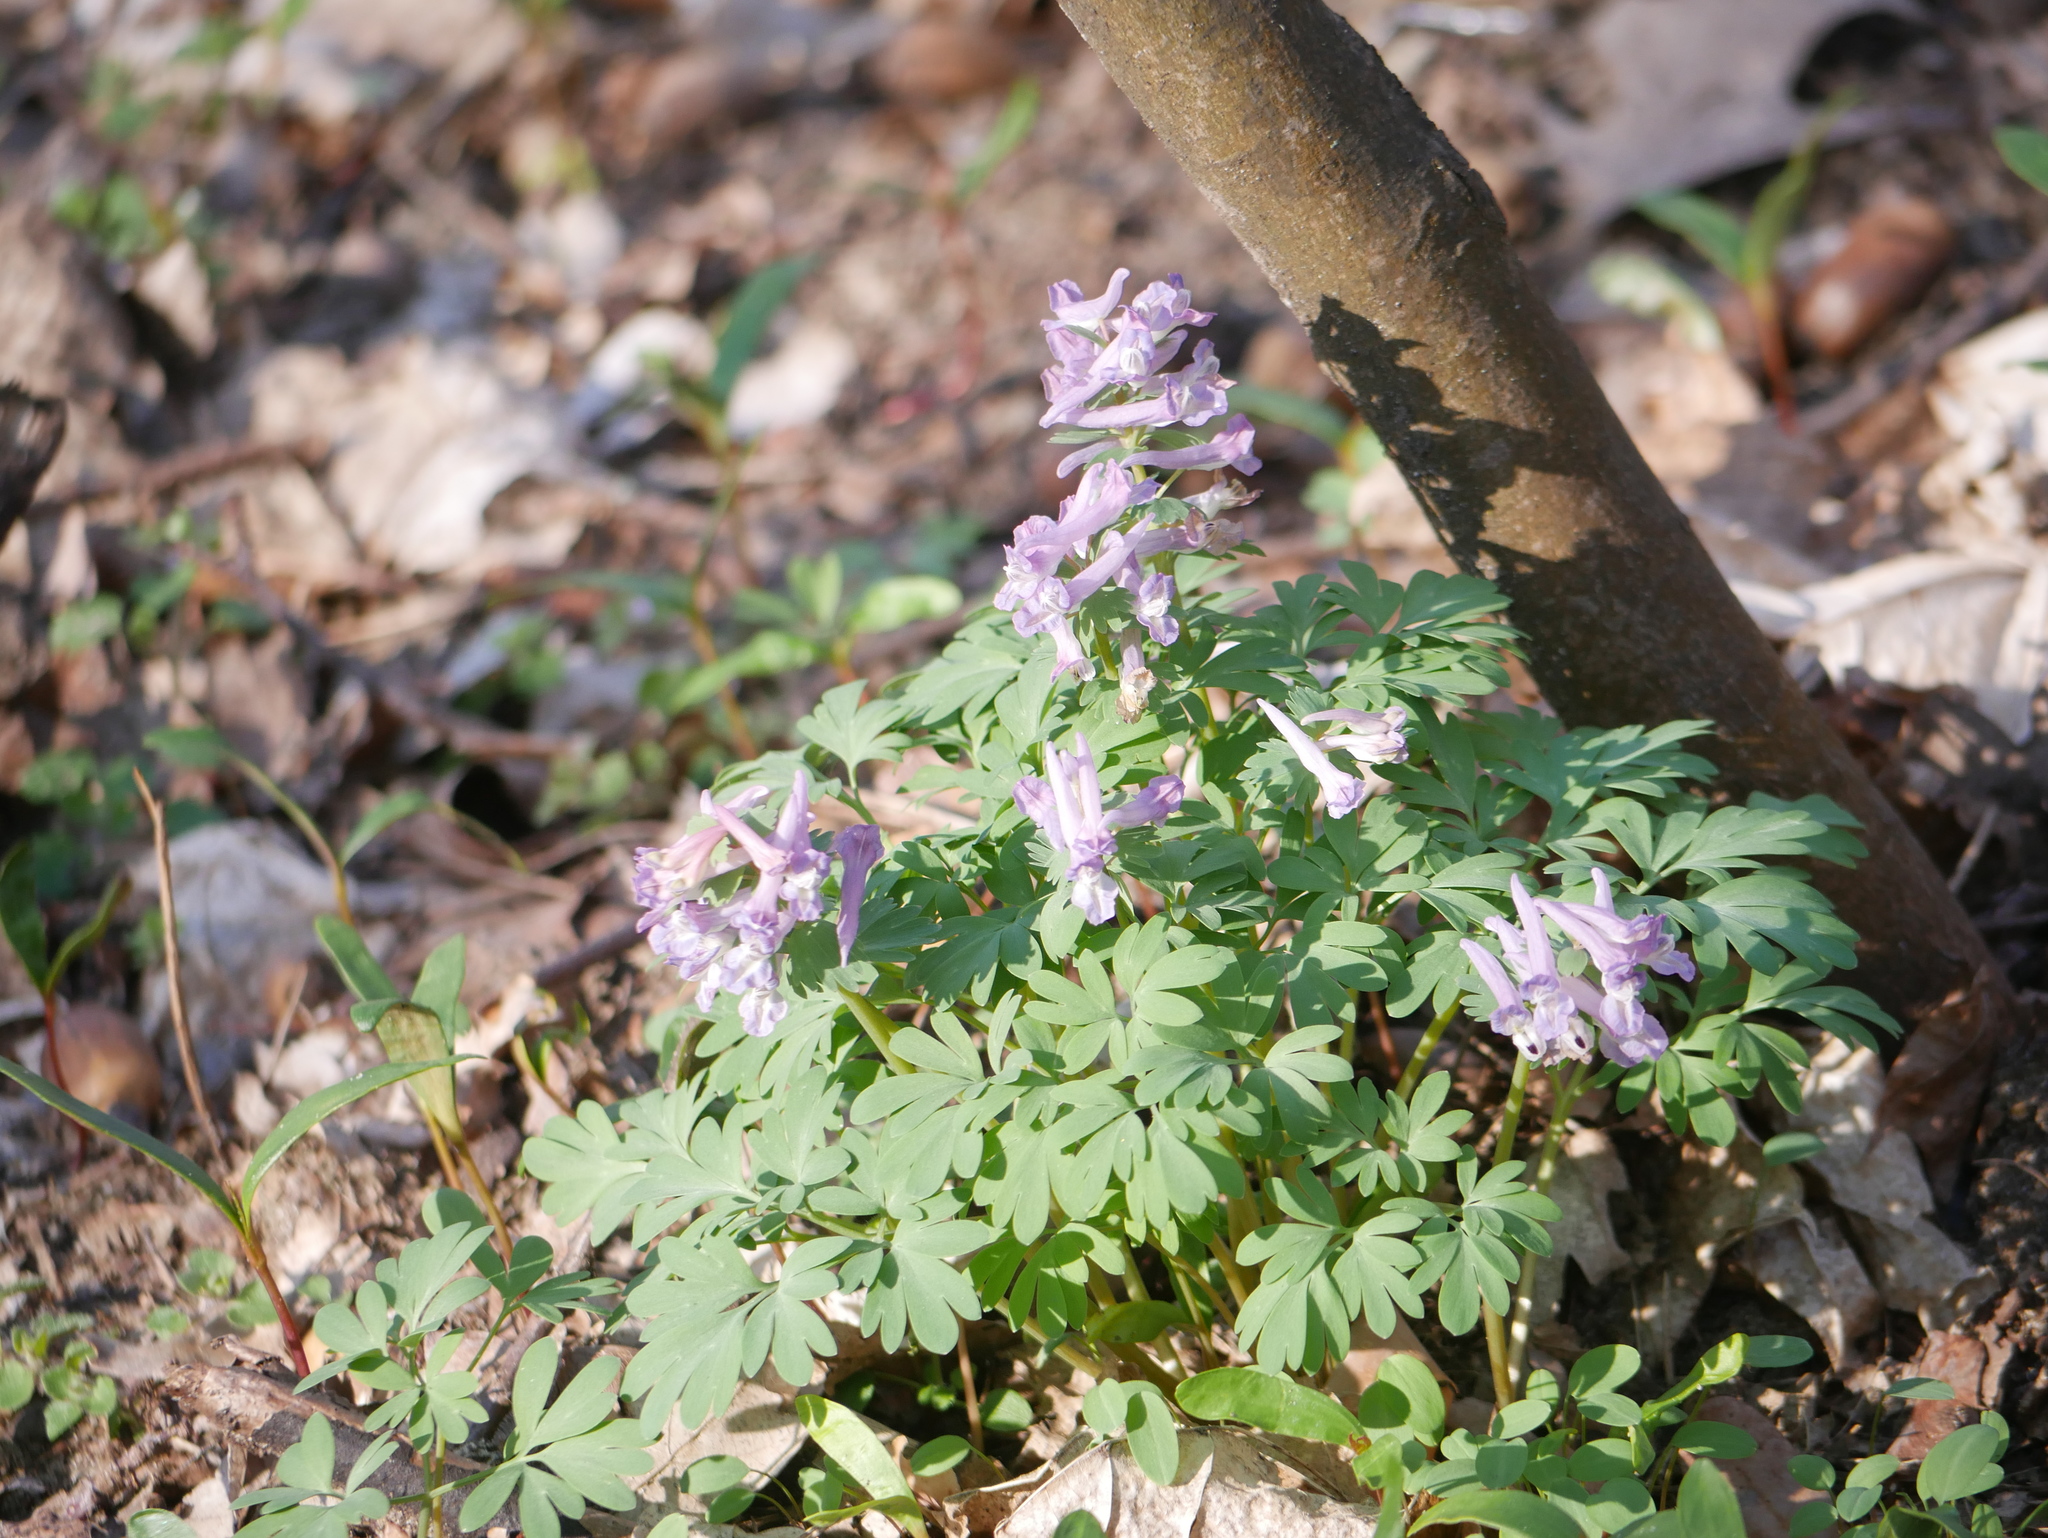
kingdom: Plantae
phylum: Tracheophyta
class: Magnoliopsida
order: Ranunculales
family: Papaveraceae
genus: Corydalis
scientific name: Corydalis solida
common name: Bird-in-a-bush
